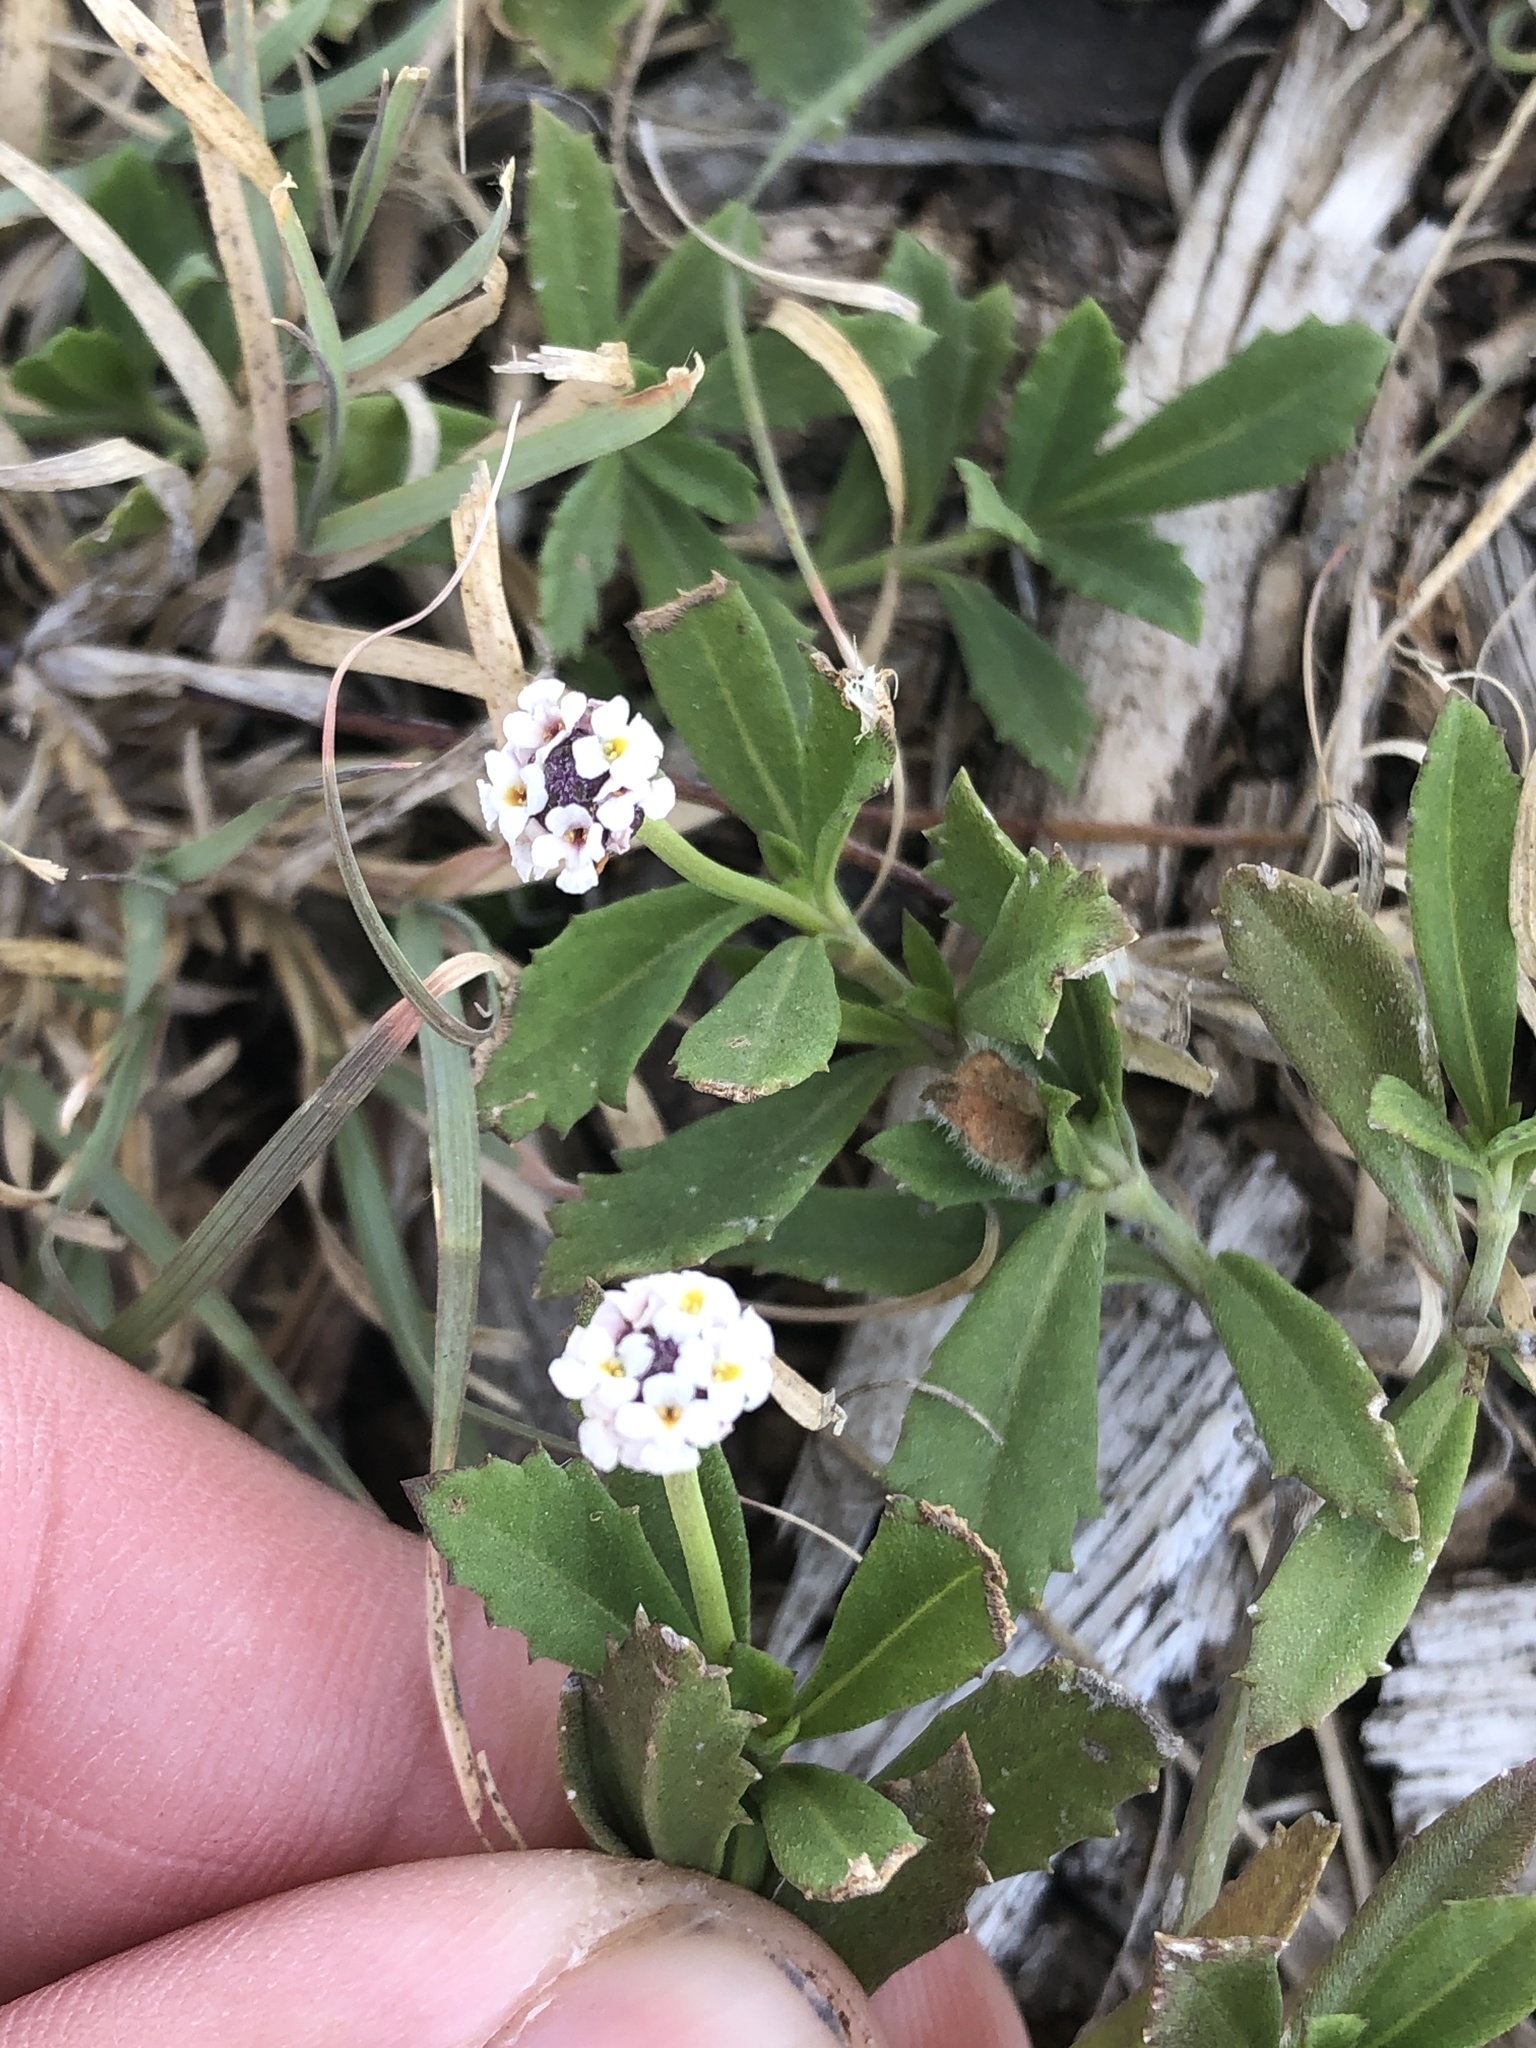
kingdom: Plantae
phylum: Tracheophyta
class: Magnoliopsida
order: Lamiales
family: Verbenaceae
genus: Phyla
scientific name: Phyla nodiflora
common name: Frogfruit
